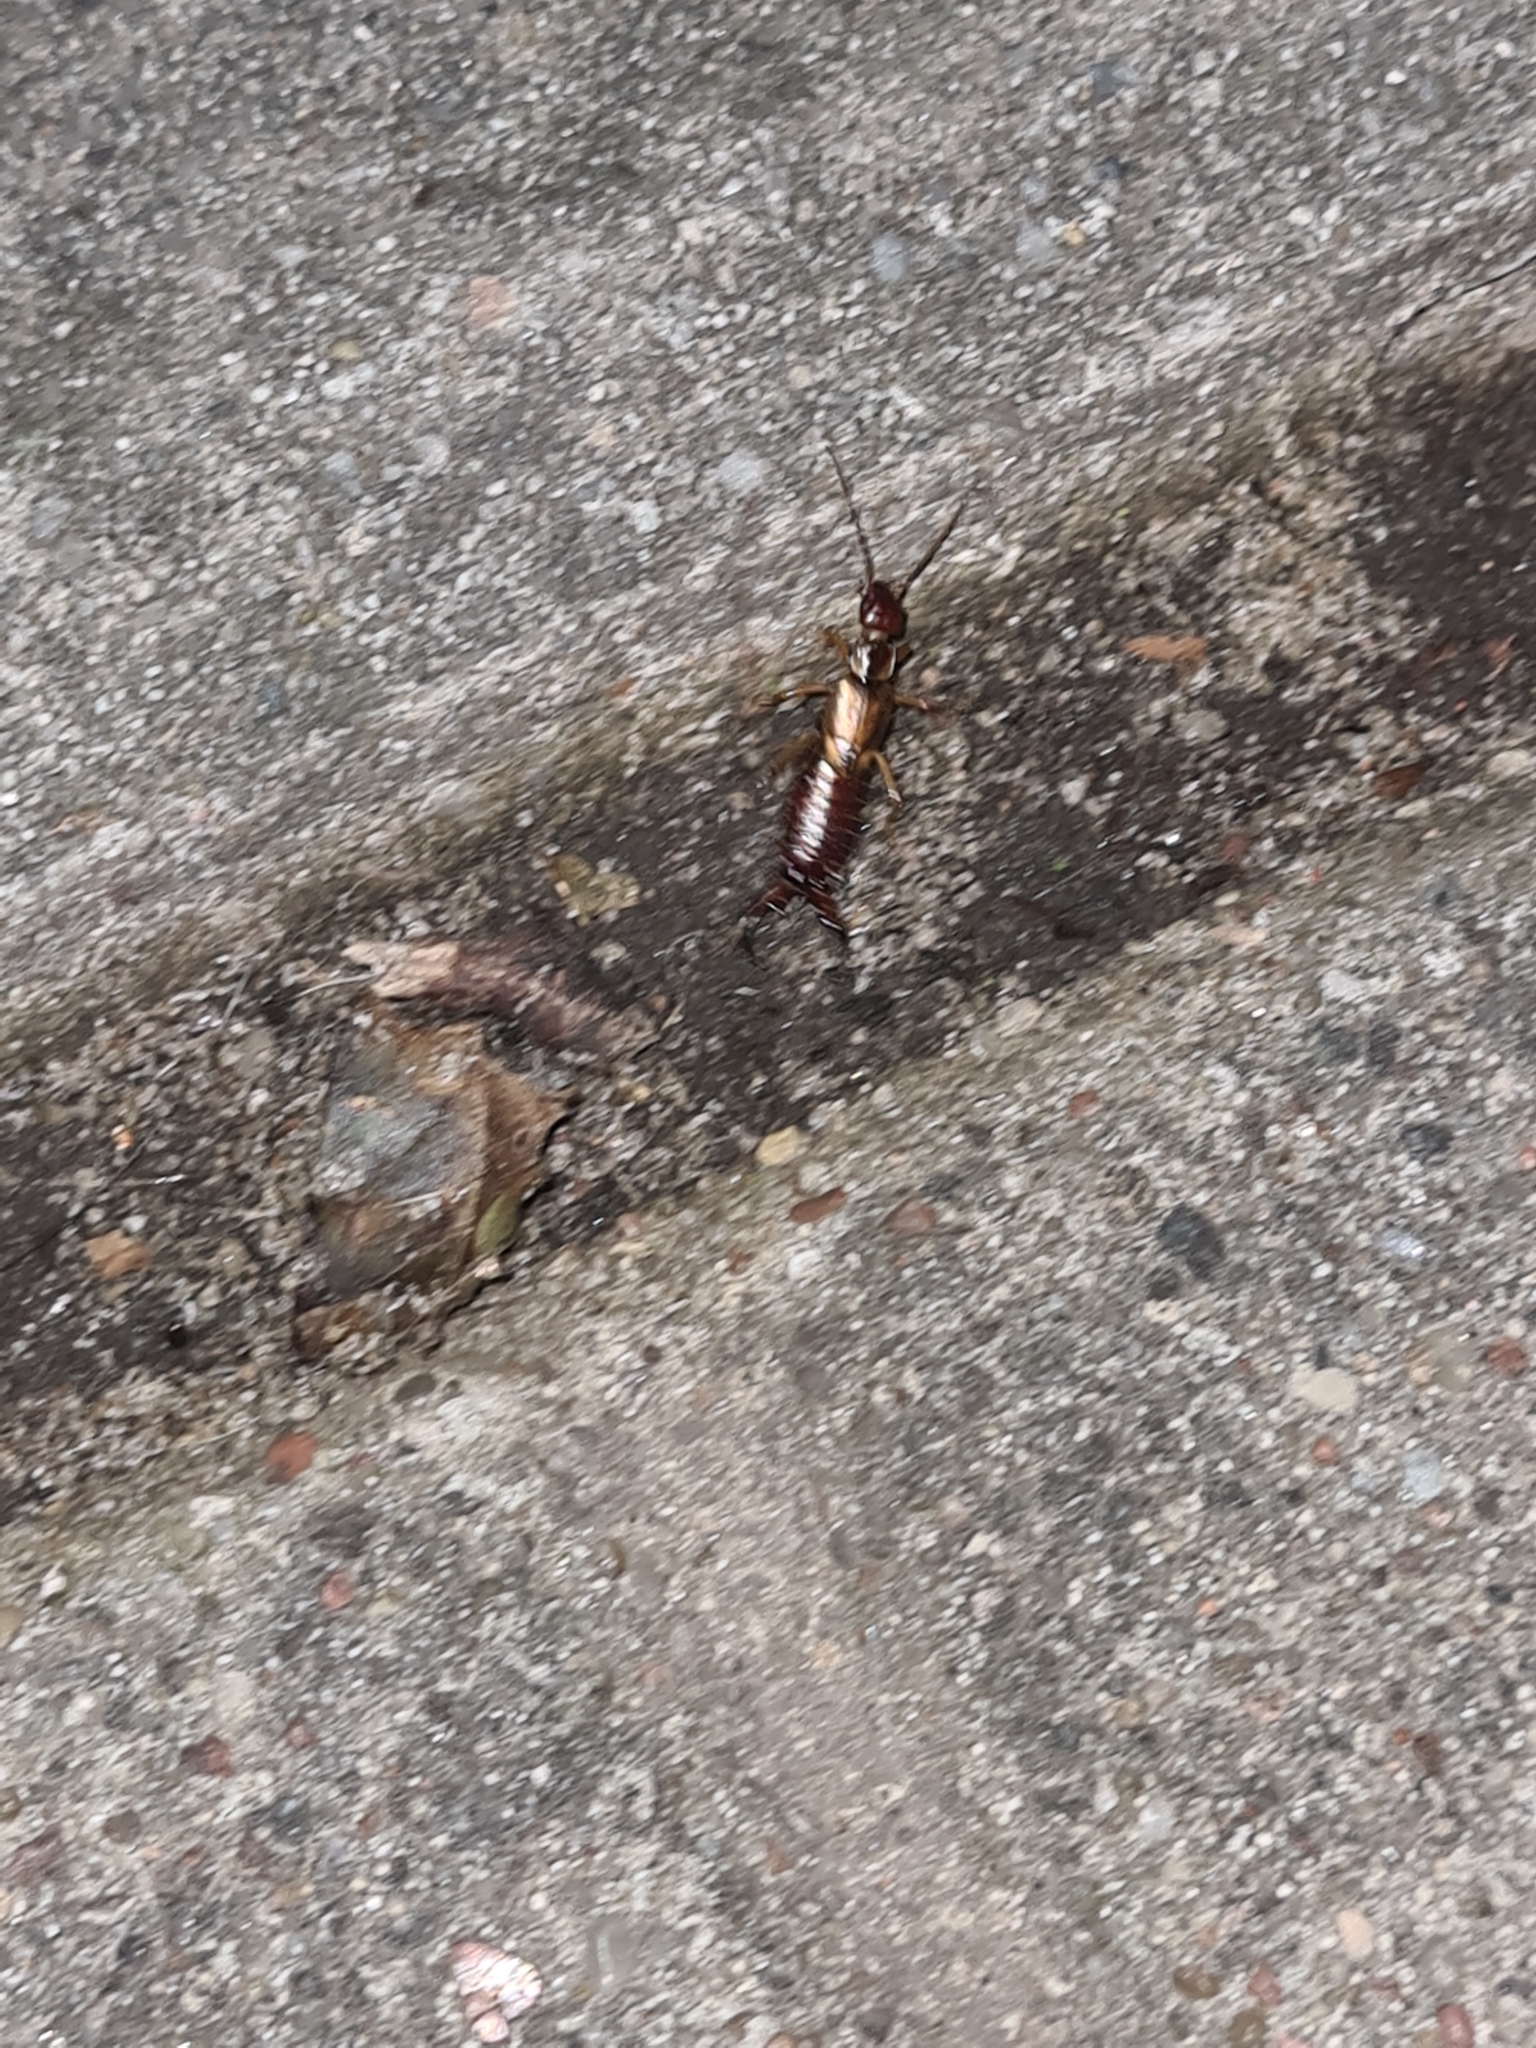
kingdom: Animalia
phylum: Arthropoda
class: Insecta
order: Dermaptera
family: Forficulidae
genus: Forficula
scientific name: Forficula
